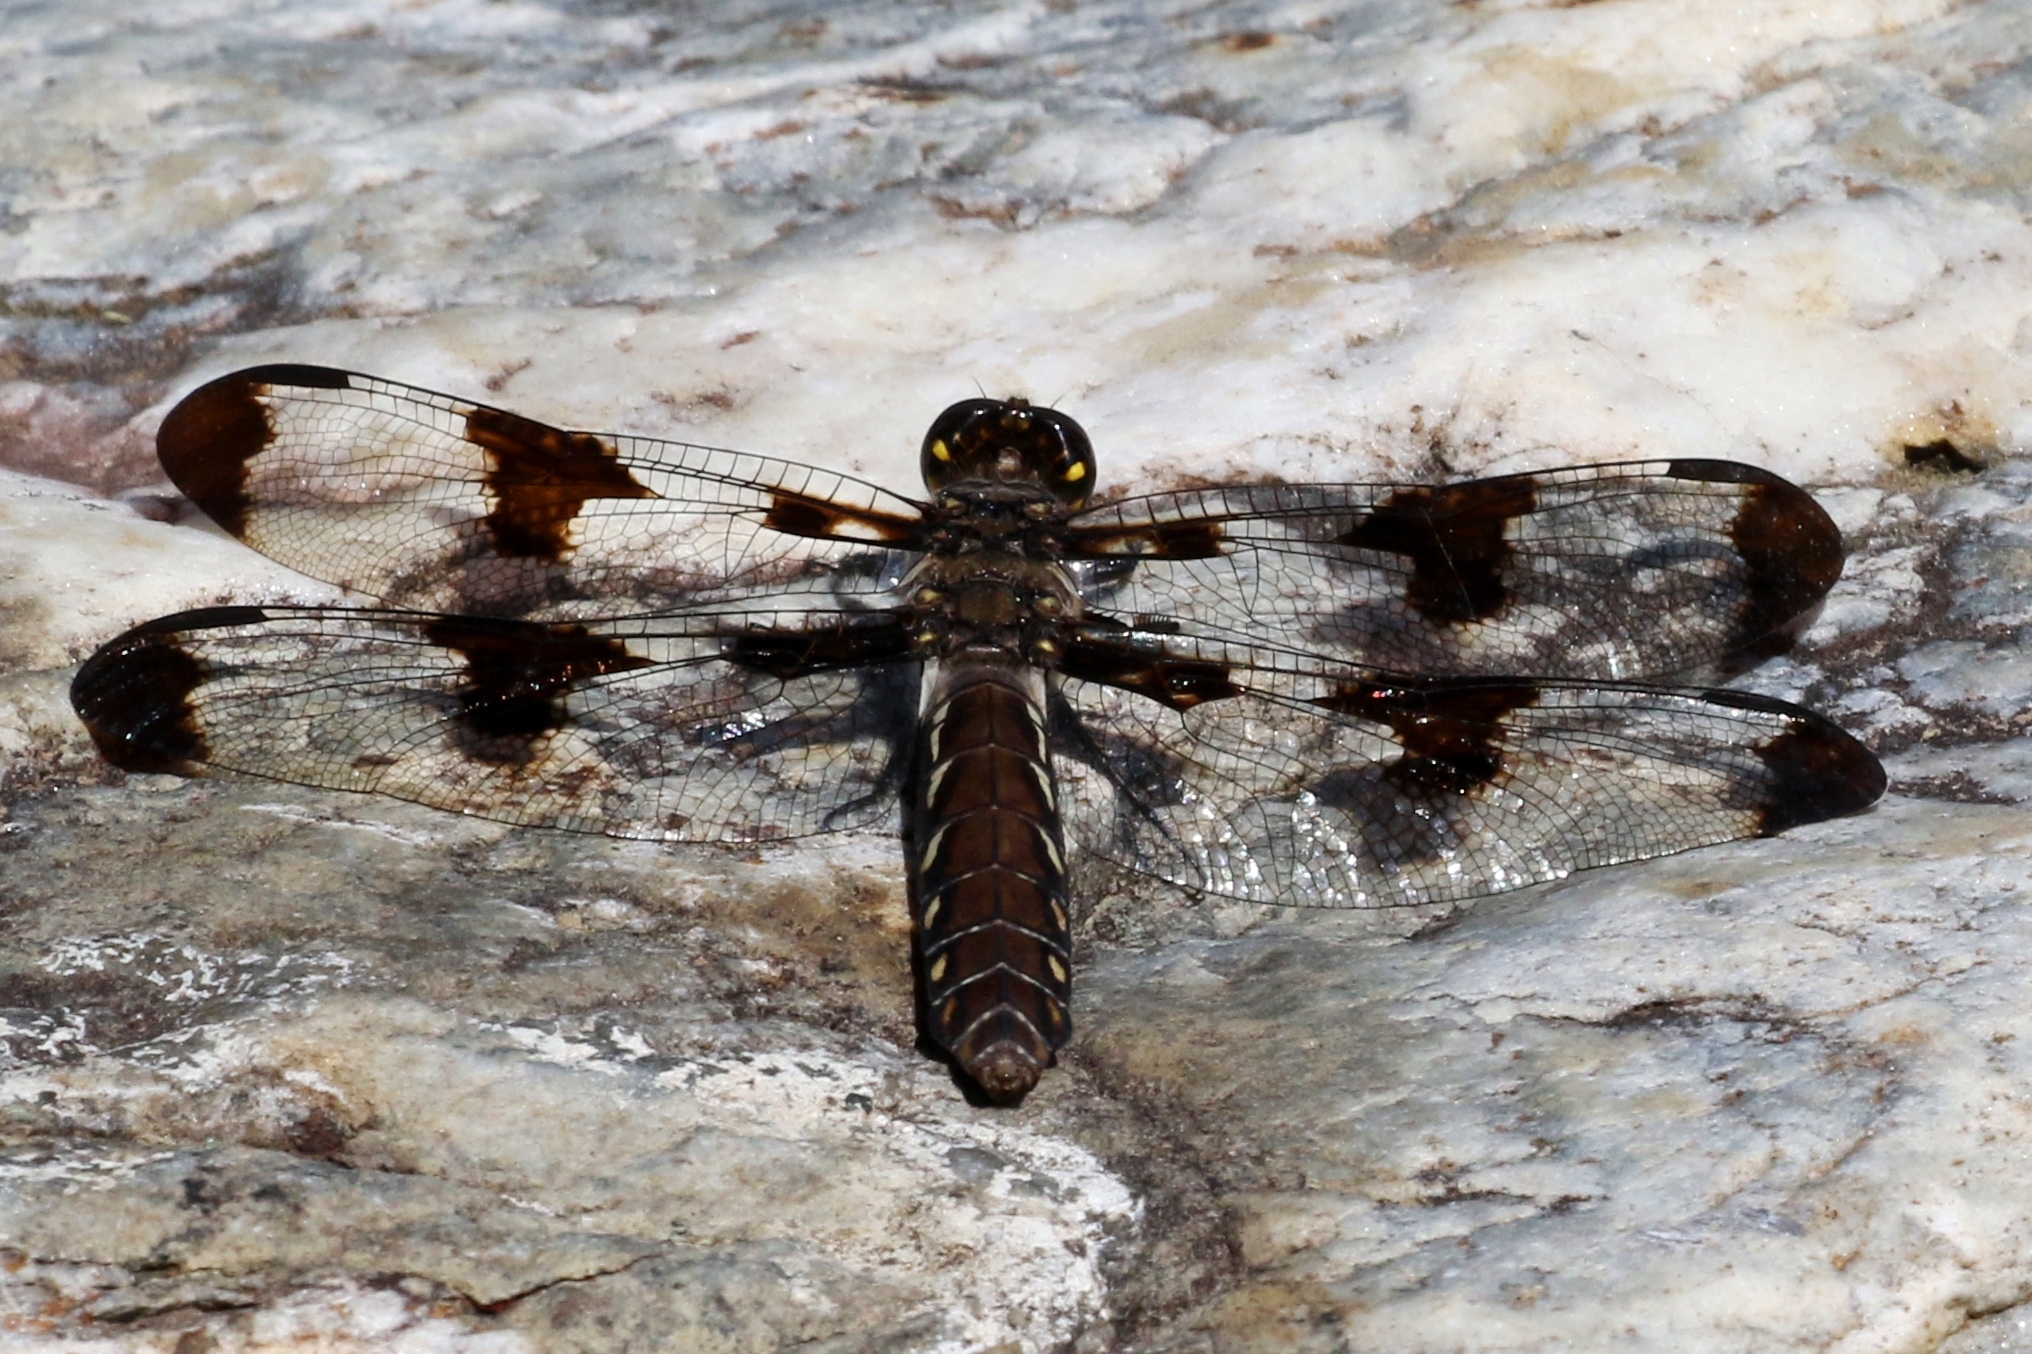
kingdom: Animalia
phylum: Arthropoda
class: Insecta
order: Odonata
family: Libellulidae
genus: Plathemis
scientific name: Plathemis lydia
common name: Common whitetail
